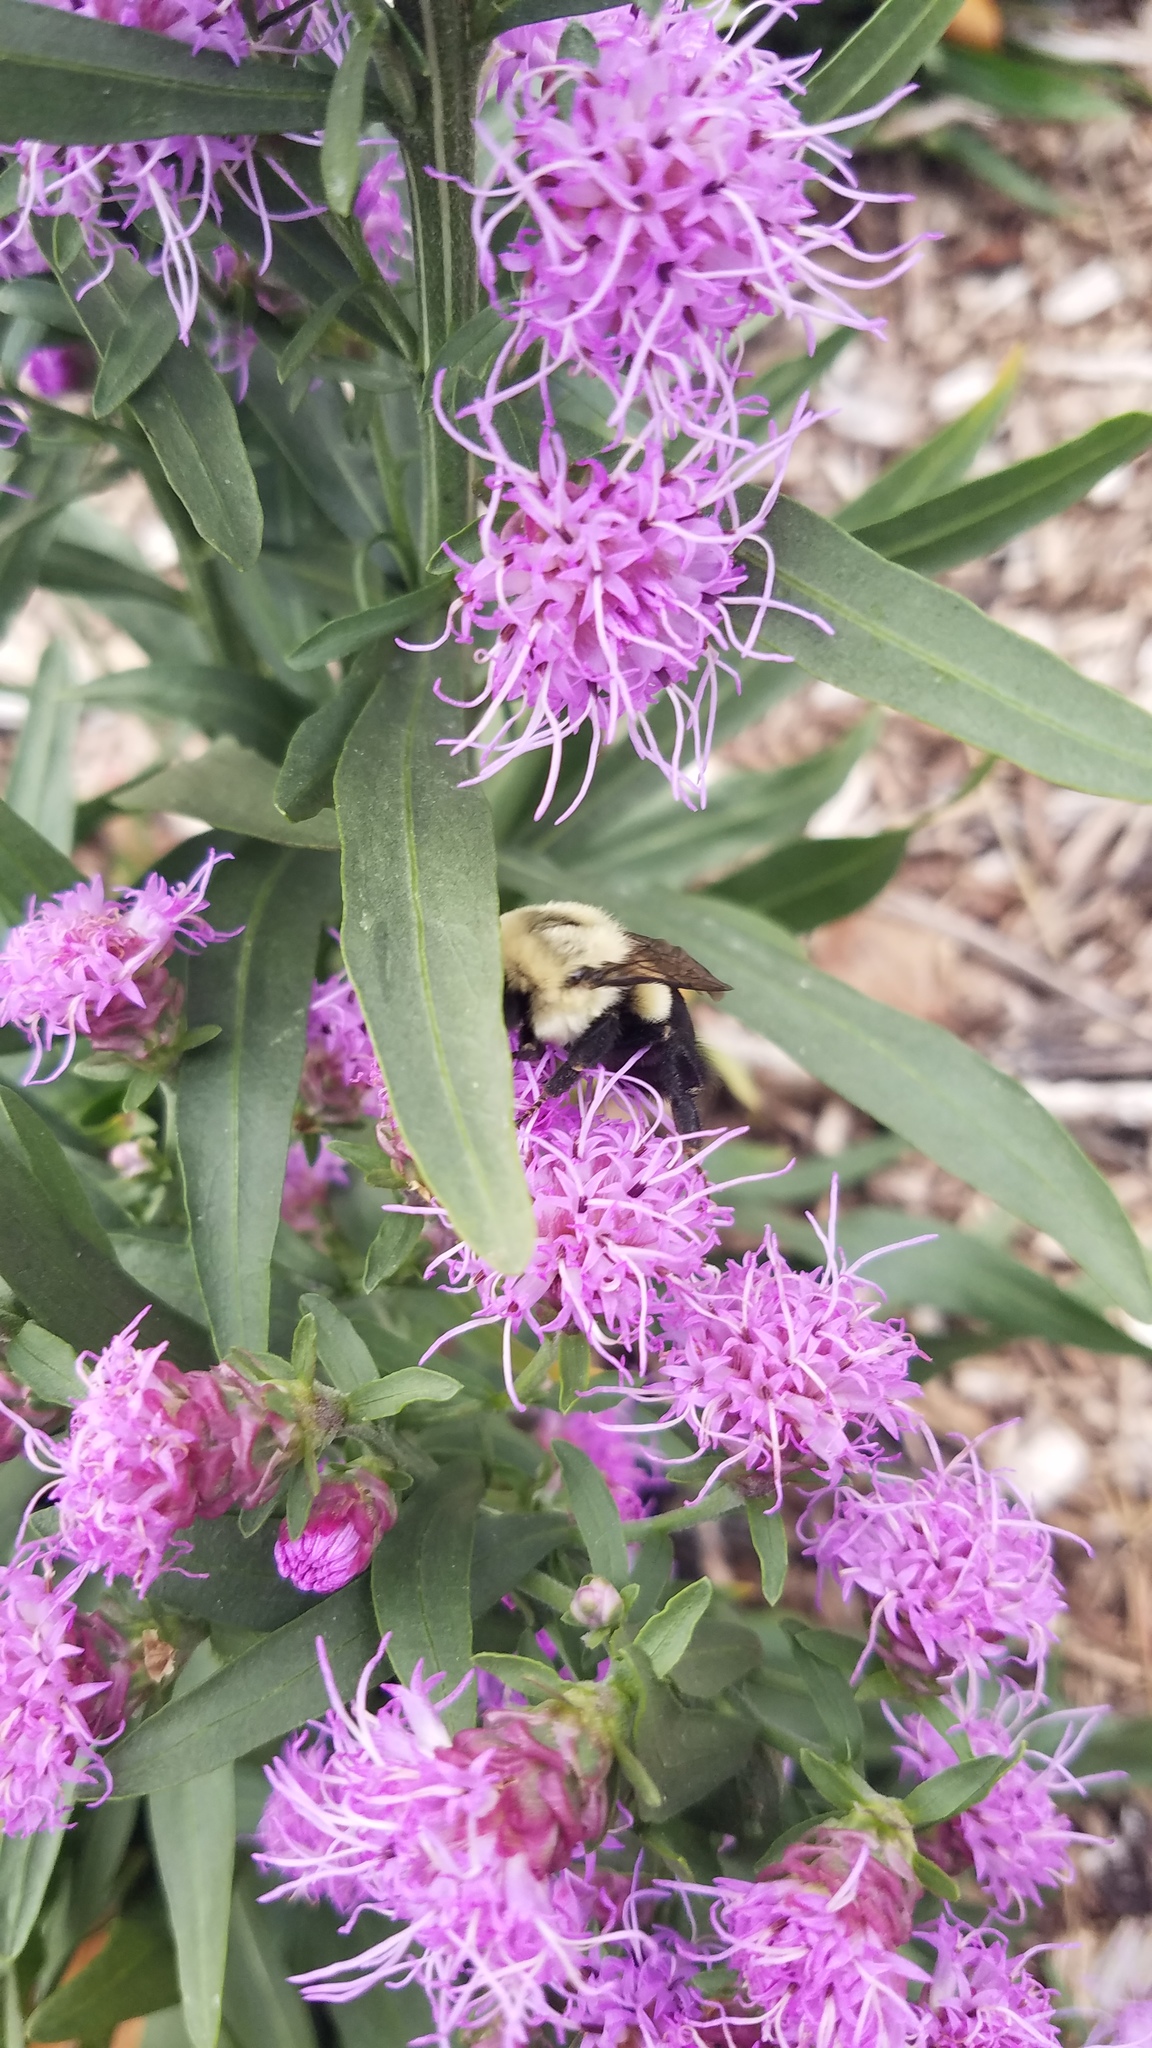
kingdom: Animalia
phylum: Arthropoda
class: Insecta
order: Hymenoptera
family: Apidae
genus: Bombus
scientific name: Bombus impatiens
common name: Common eastern bumble bee
